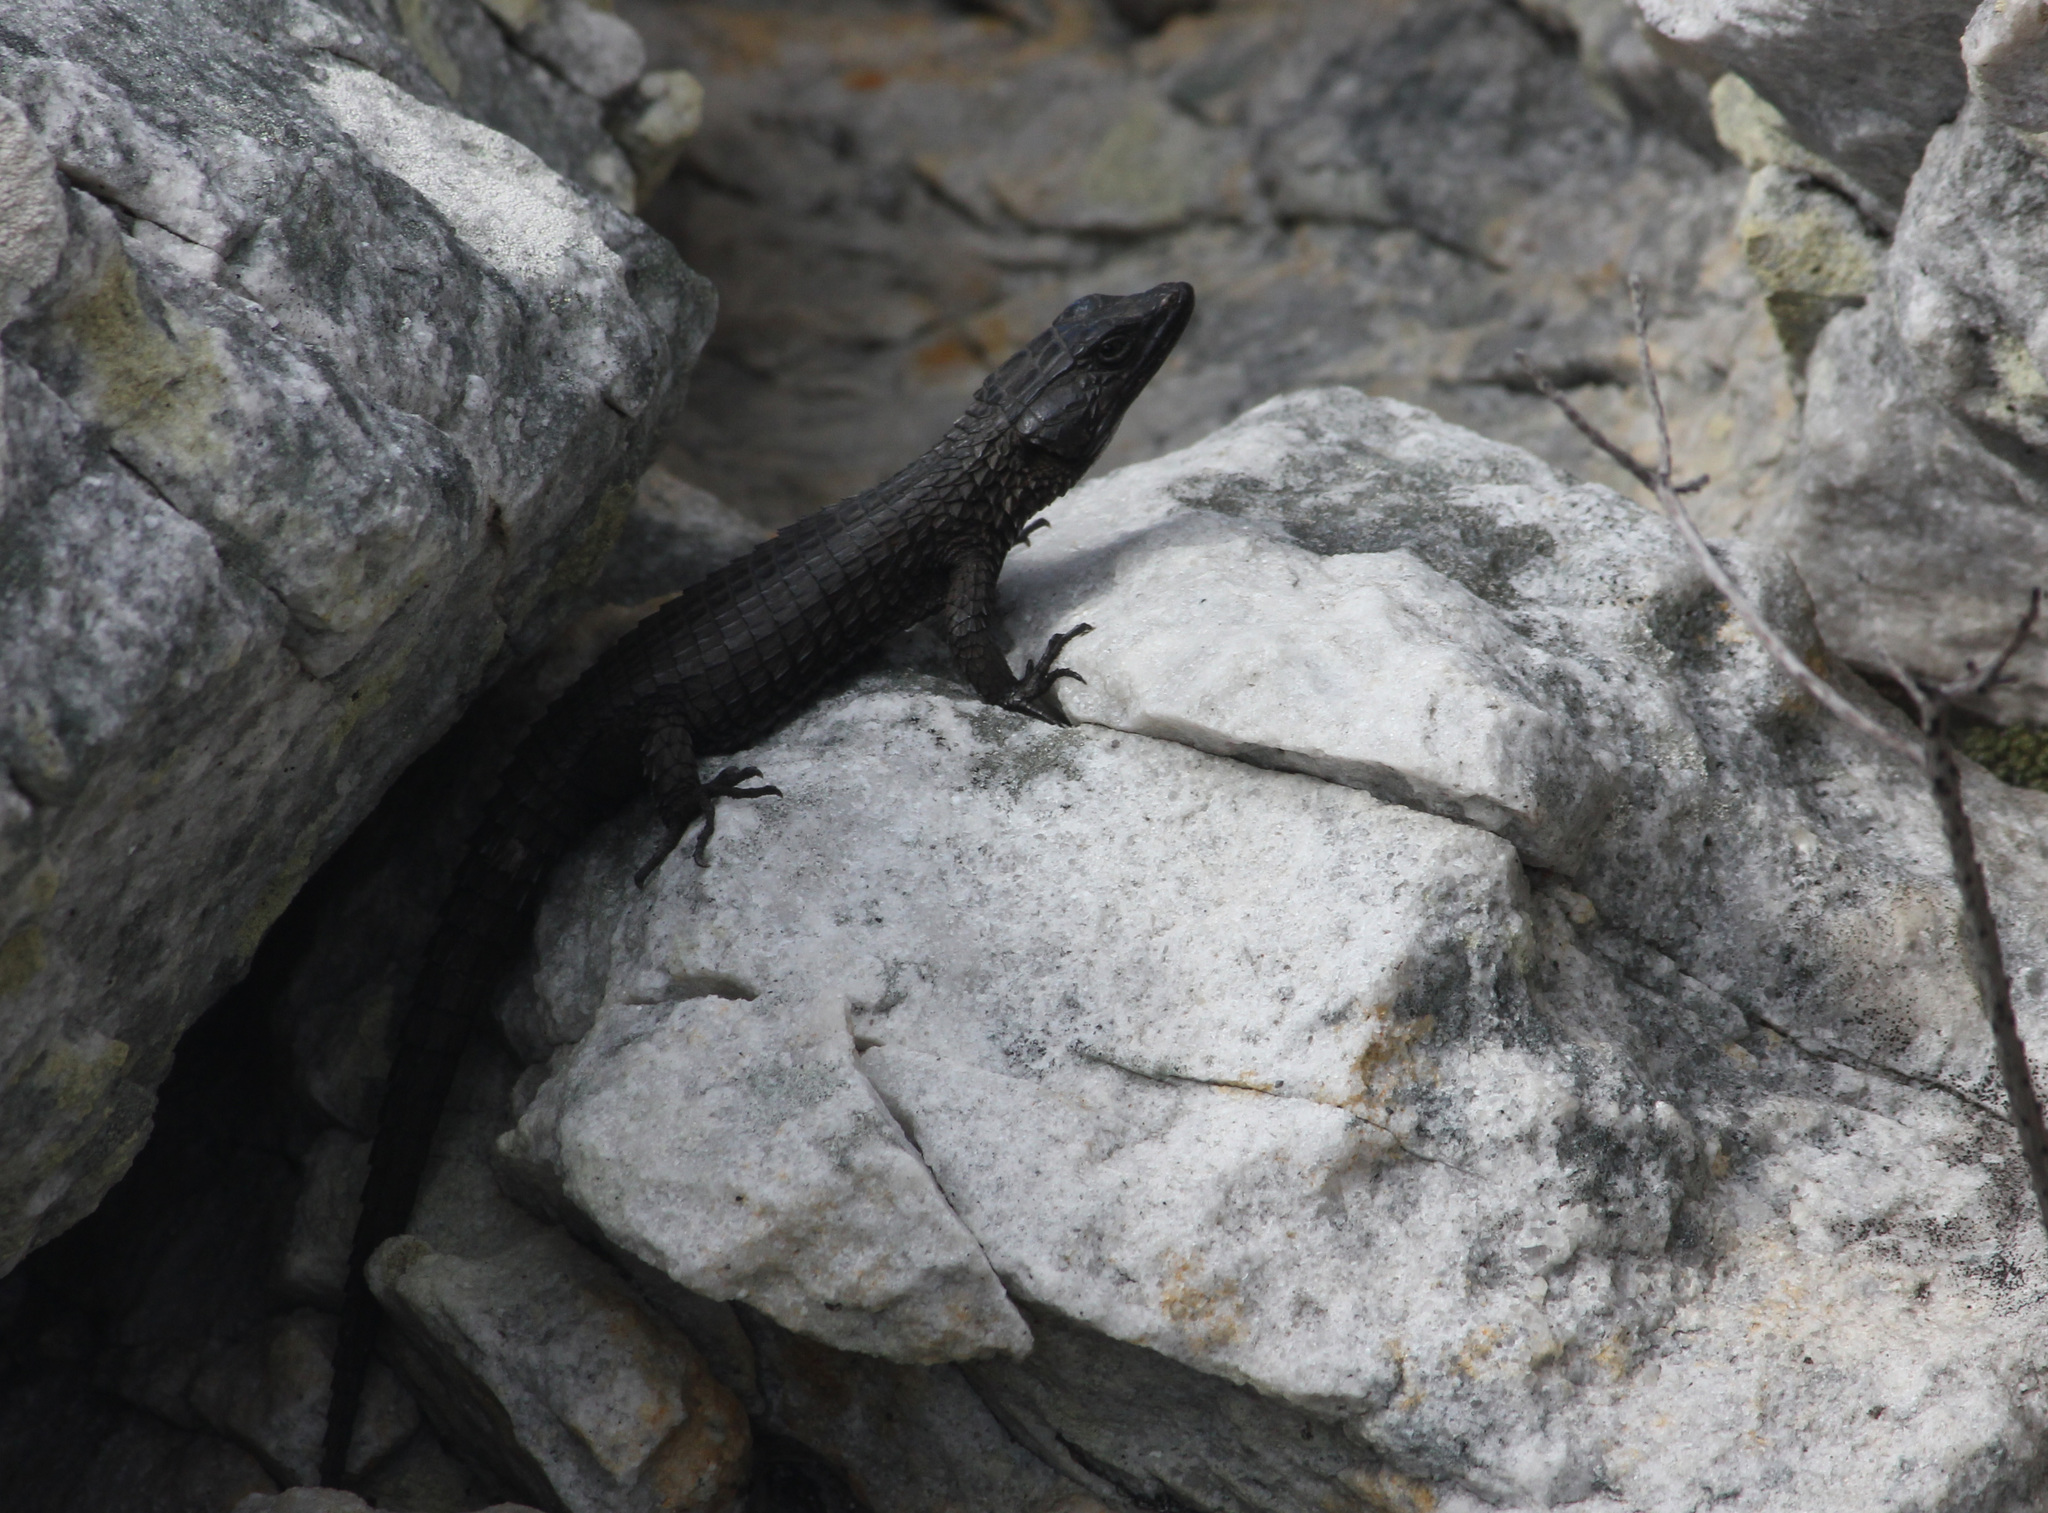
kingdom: Animalia
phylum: Chordata
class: Squamata
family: Cordylidae
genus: Cordylus
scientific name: Cordylus niger
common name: Black girdled lizard
